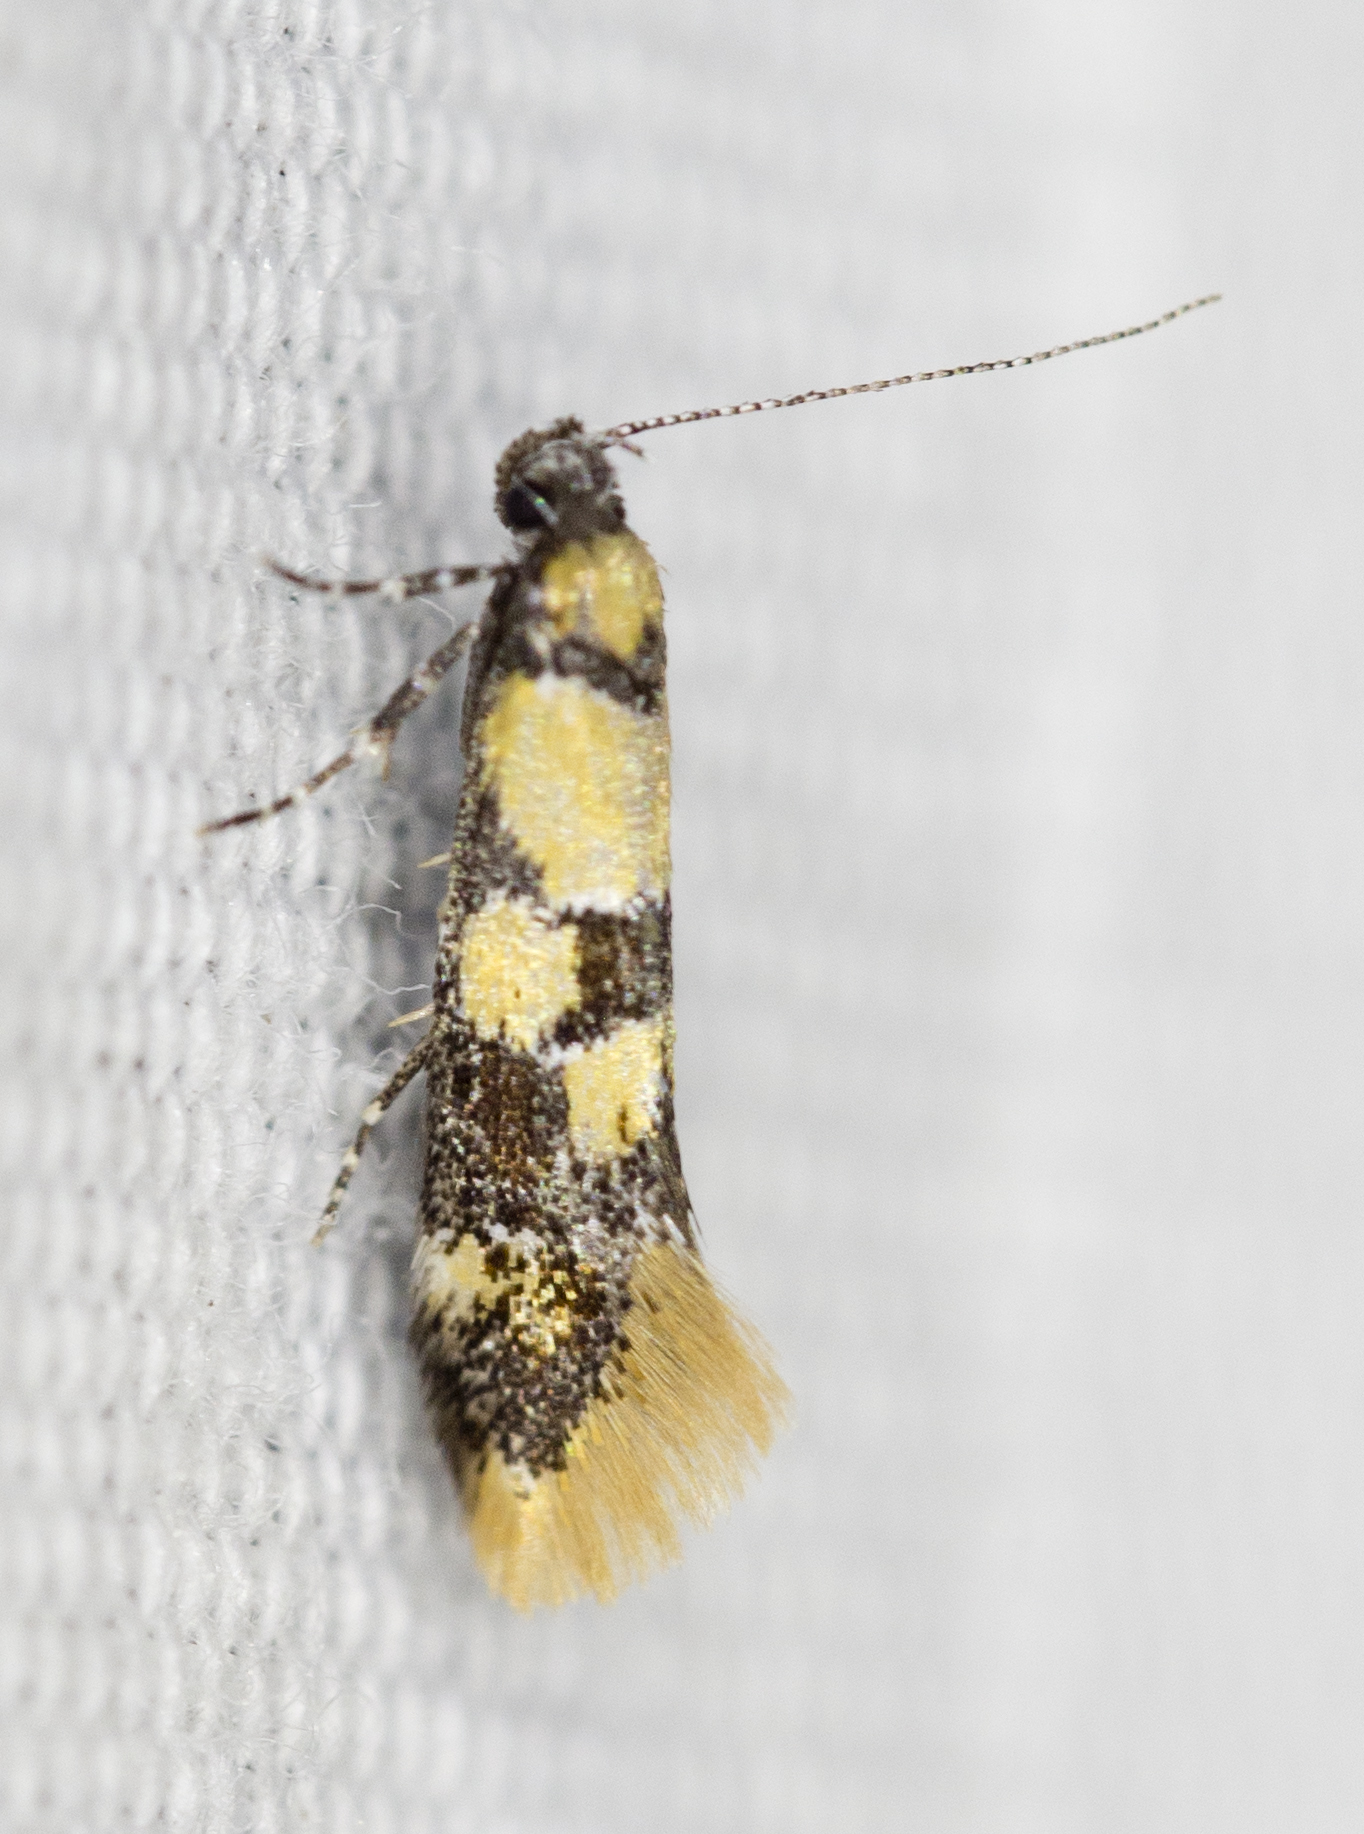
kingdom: Animalia
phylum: Arthropoda
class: Insecta
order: Lepidoptera
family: Oecophoridae
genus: Decantha
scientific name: Decantha tistra
